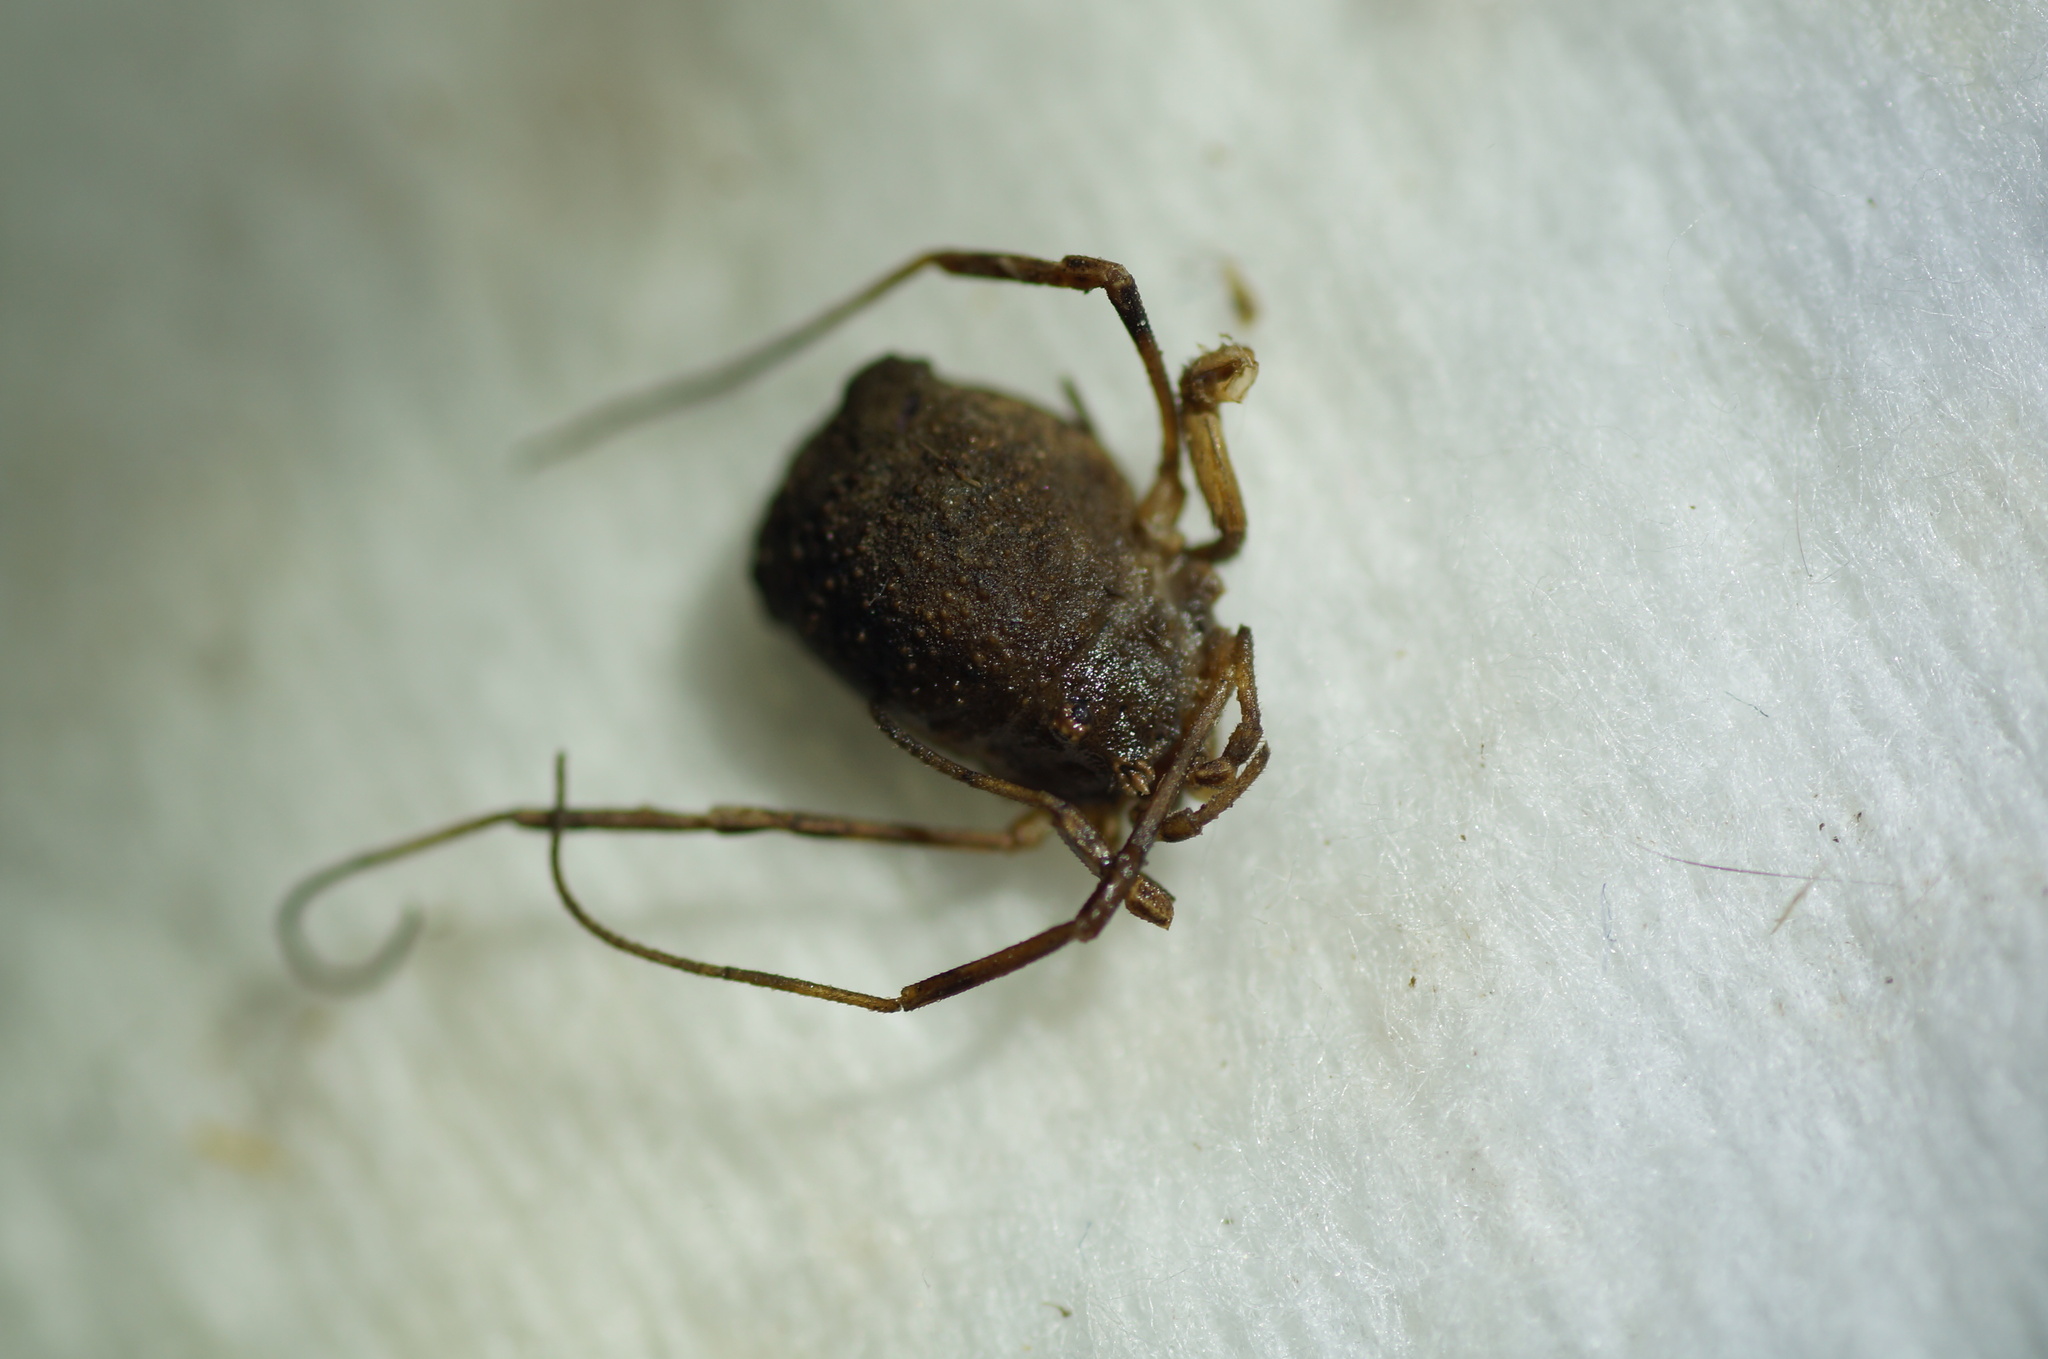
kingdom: Animalia
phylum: Arthropoda
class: Arachnida
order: Opiliones
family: Phalangiidae
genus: Odiellus
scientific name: Odiellus lendlii
